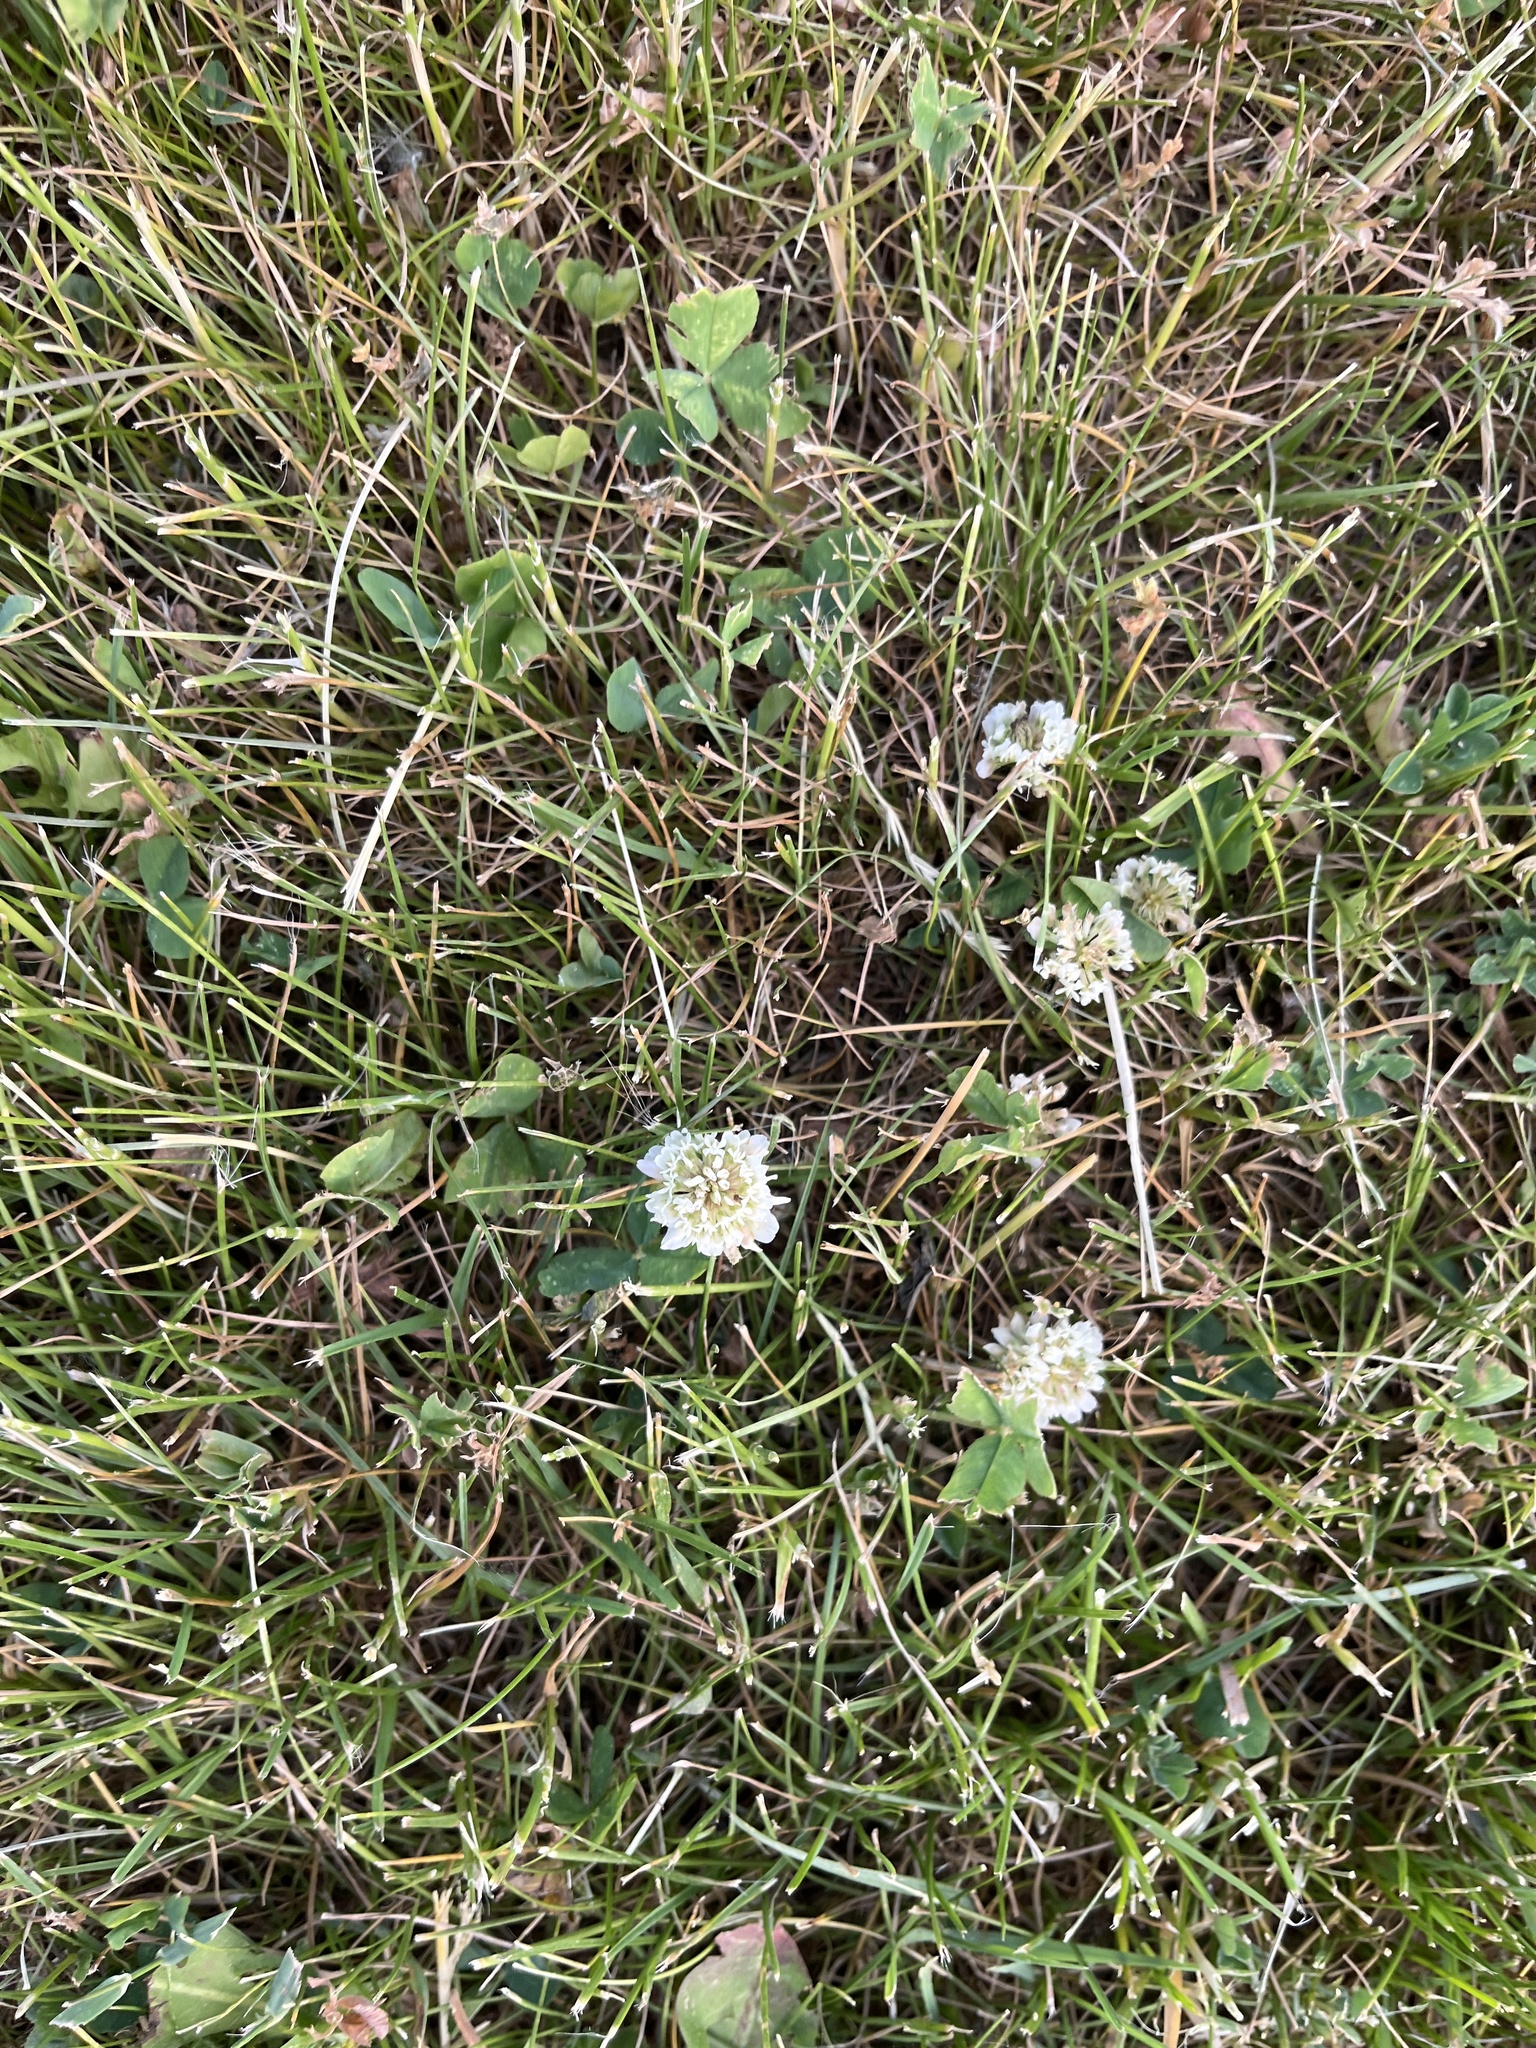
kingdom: Plantae
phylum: Tracheophyta
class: Magnoliopsida
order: Fabales
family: Fabaceae
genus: Trifolium
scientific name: Trifolium repens
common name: White clover
